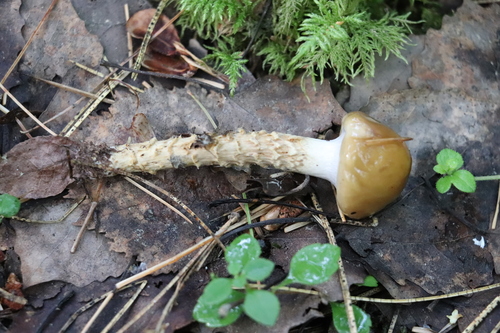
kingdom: Fungi
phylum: Basidiomycota
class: Agaricomycetes
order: Agaricales
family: Cortinariaceae
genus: Cortinarius
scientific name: Cortinarius trivialis
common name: Girdled webcap
